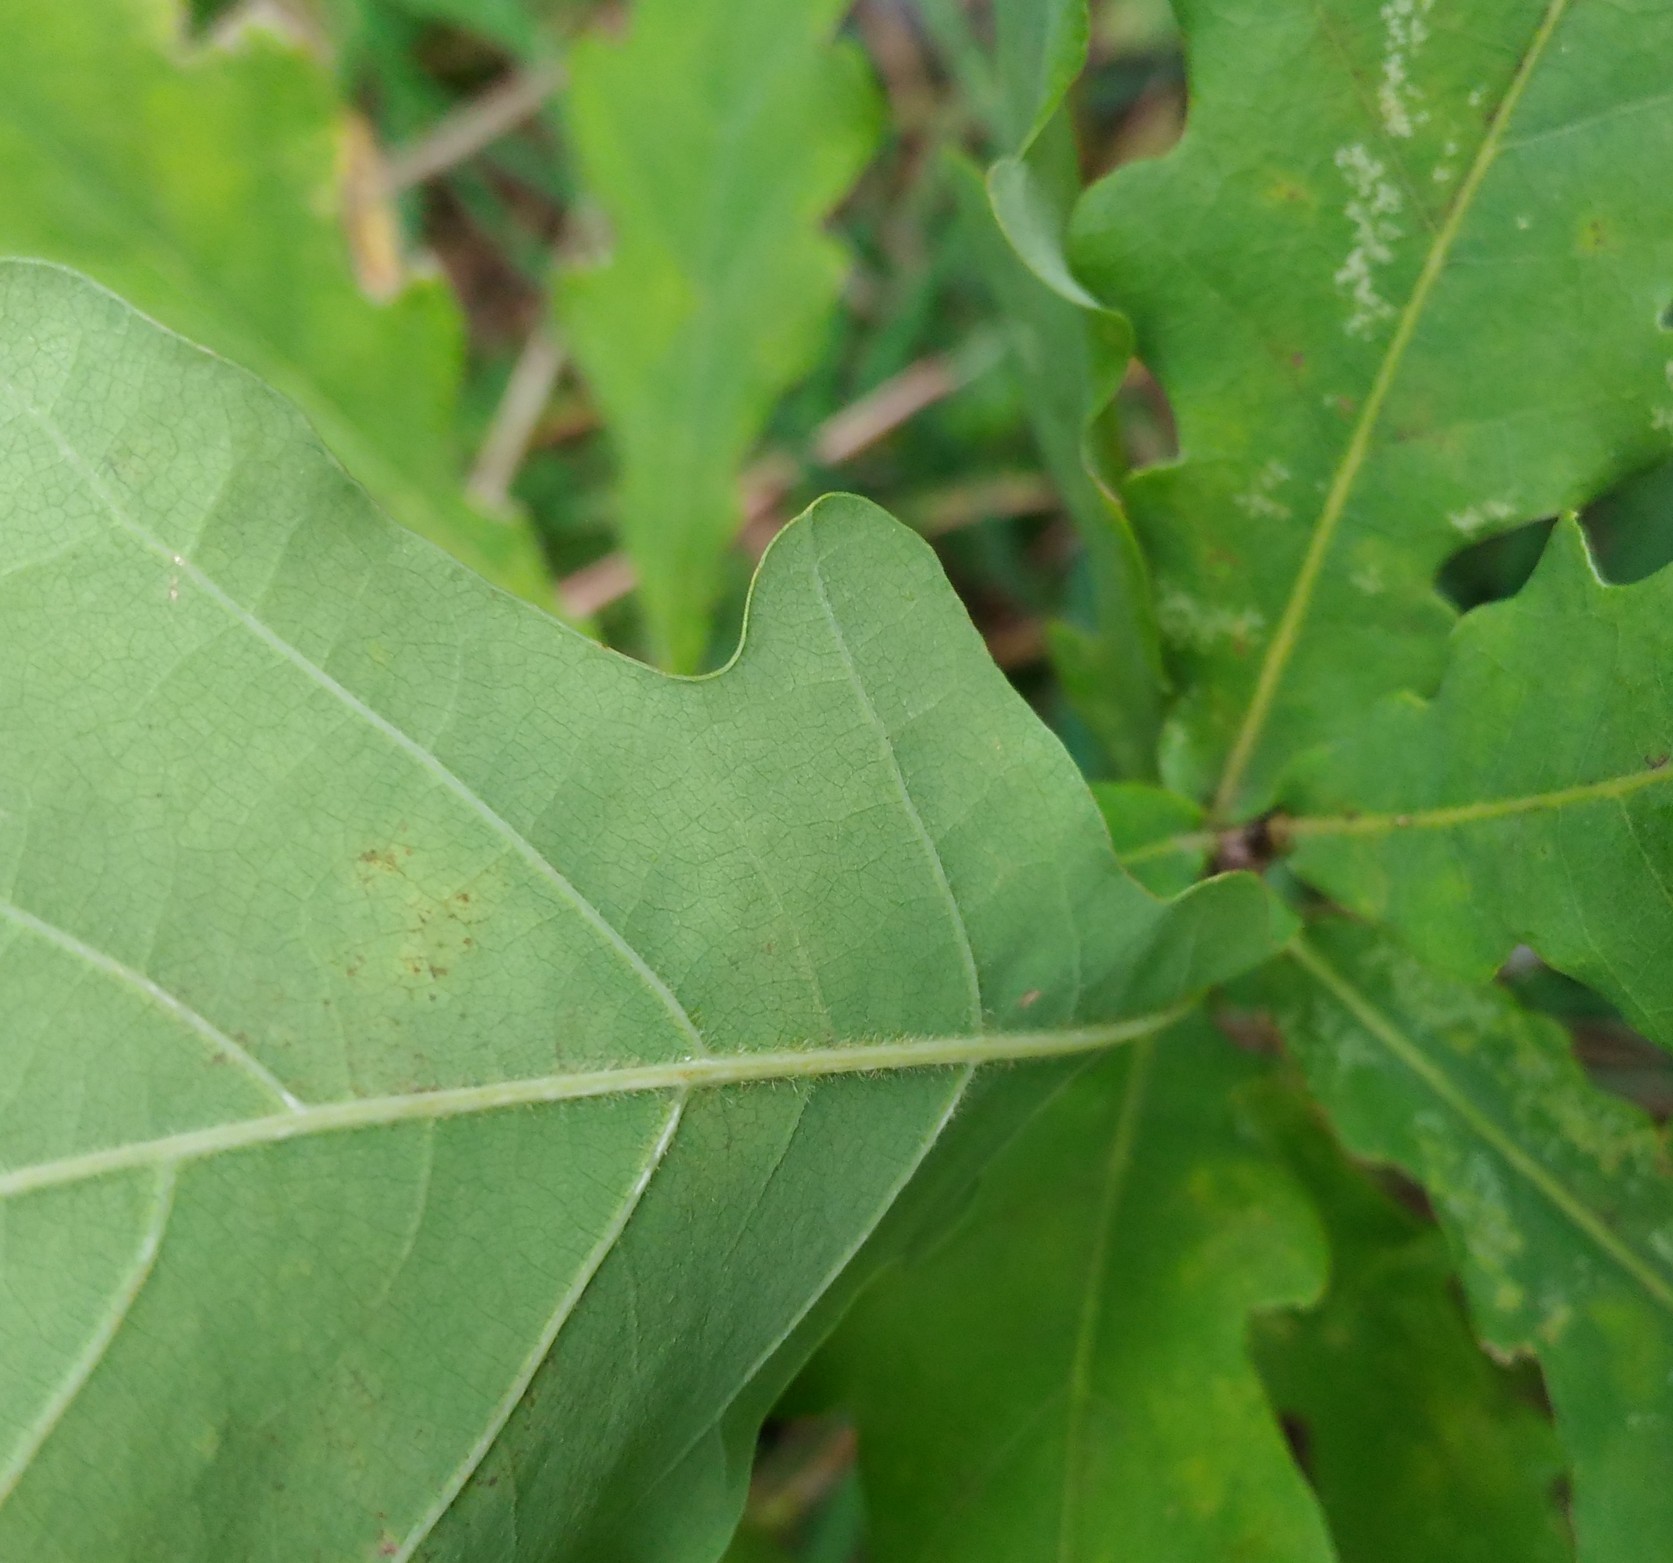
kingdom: Plantae
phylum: Tracheophyta
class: Magnoliopsida
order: Fagales
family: Fagaceae
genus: Quercus
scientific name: Quercus robur
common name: Pedunculate oak
